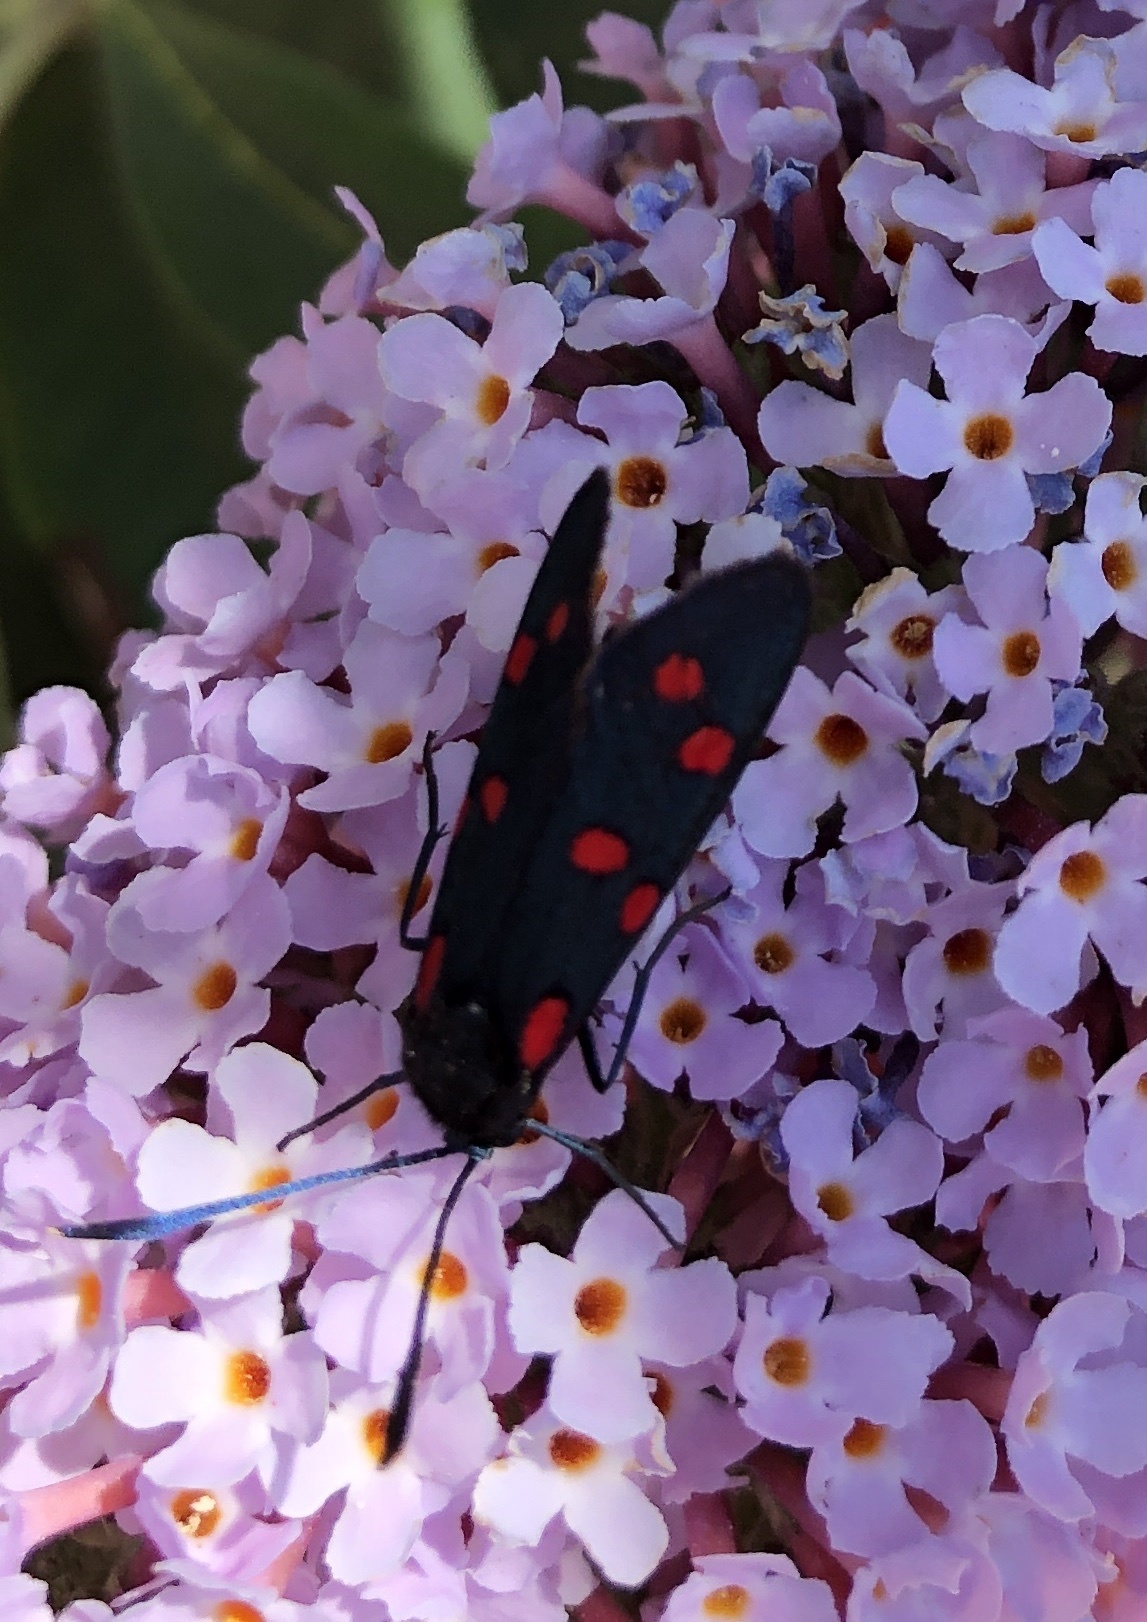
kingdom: Animalia
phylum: Arthropoda
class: Insecta
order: Lepidoptera
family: Zygaenidae
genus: Zygaena
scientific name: Zygaena transalpina
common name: Southern six spot burnet
